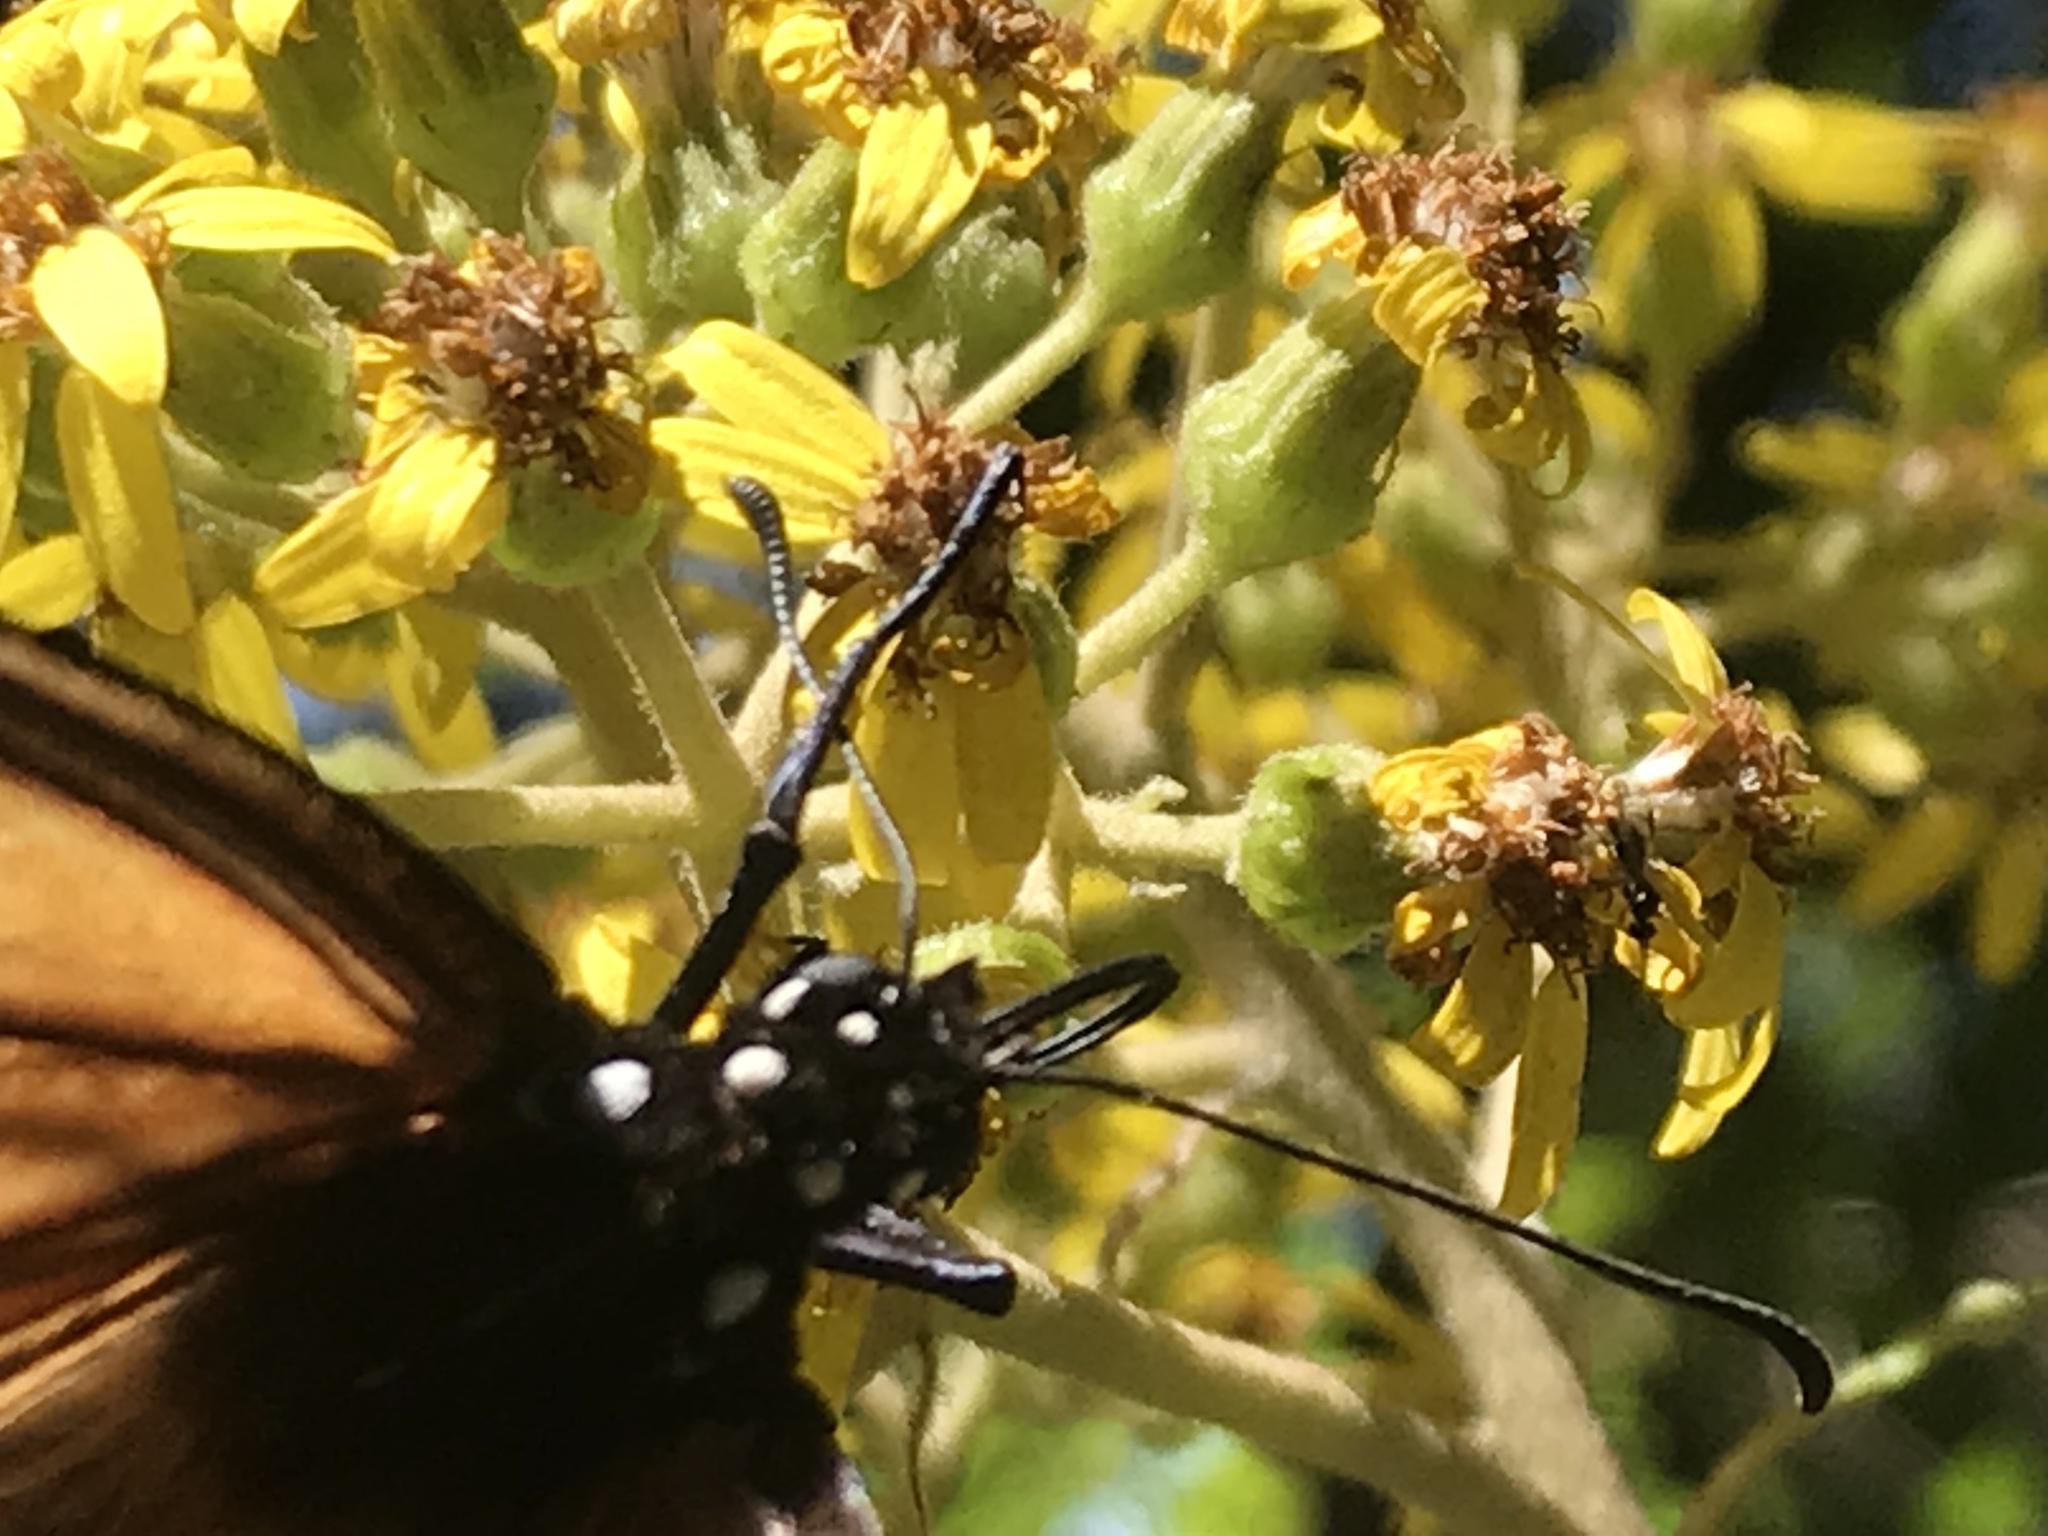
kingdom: Animalia
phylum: Arthropoda
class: Insecta
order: Lepidoptera
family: Nymphalidae
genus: Danaus
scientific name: Danaus plexippus
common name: Monarch
